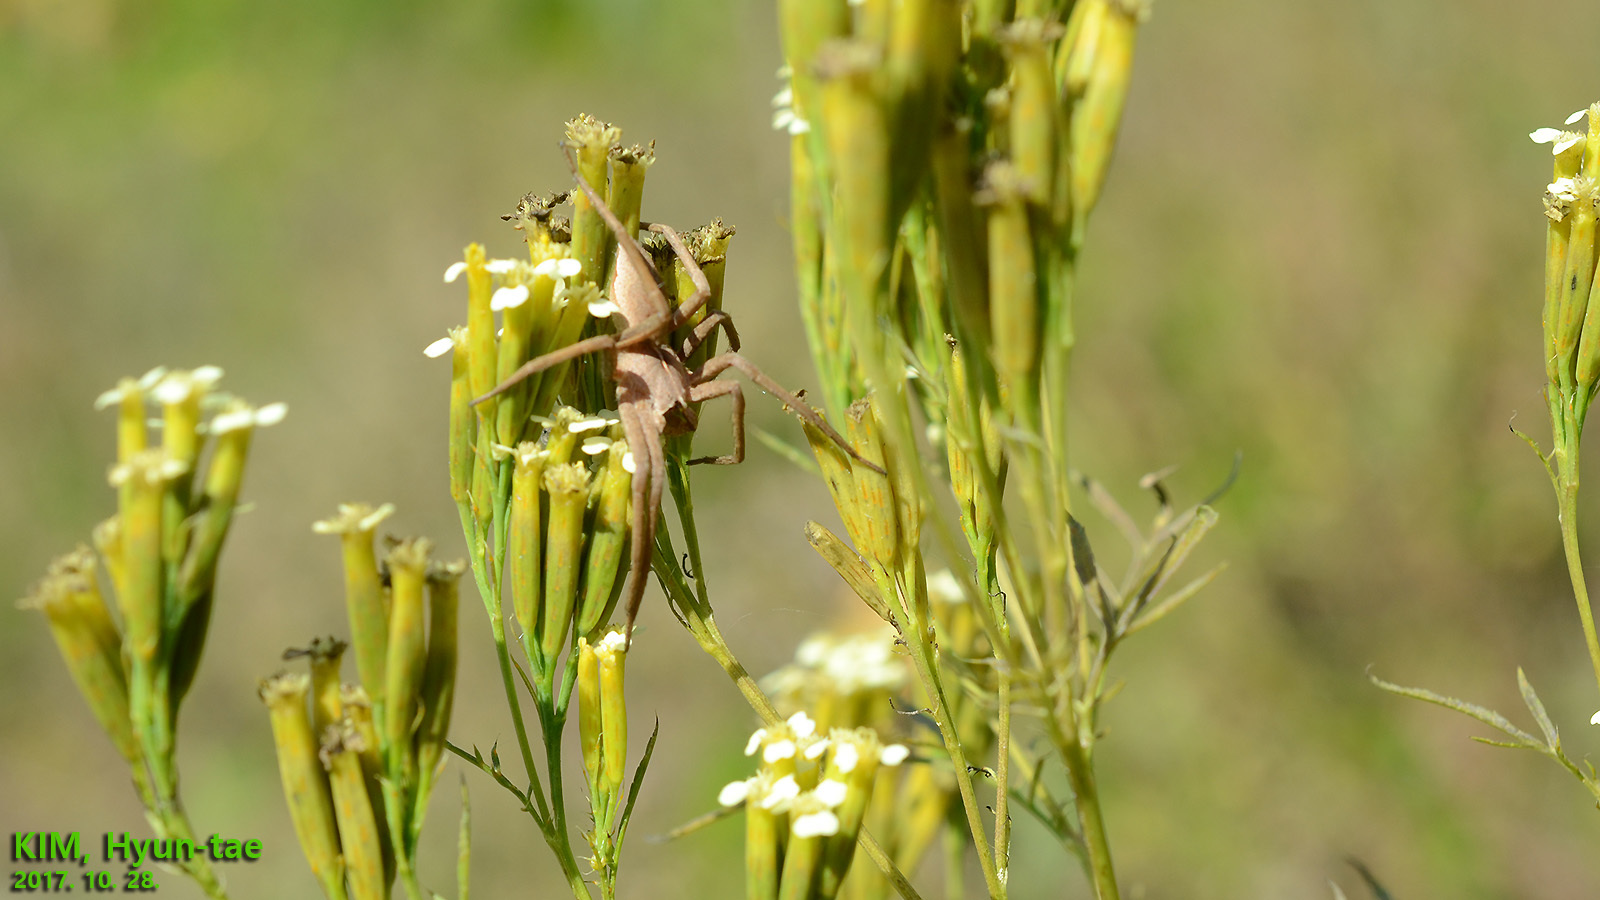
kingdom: Animalia
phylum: Arthropoda
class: Arachnida
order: Araneae
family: Pisauridae
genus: Pisaura
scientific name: Pisaura lama
